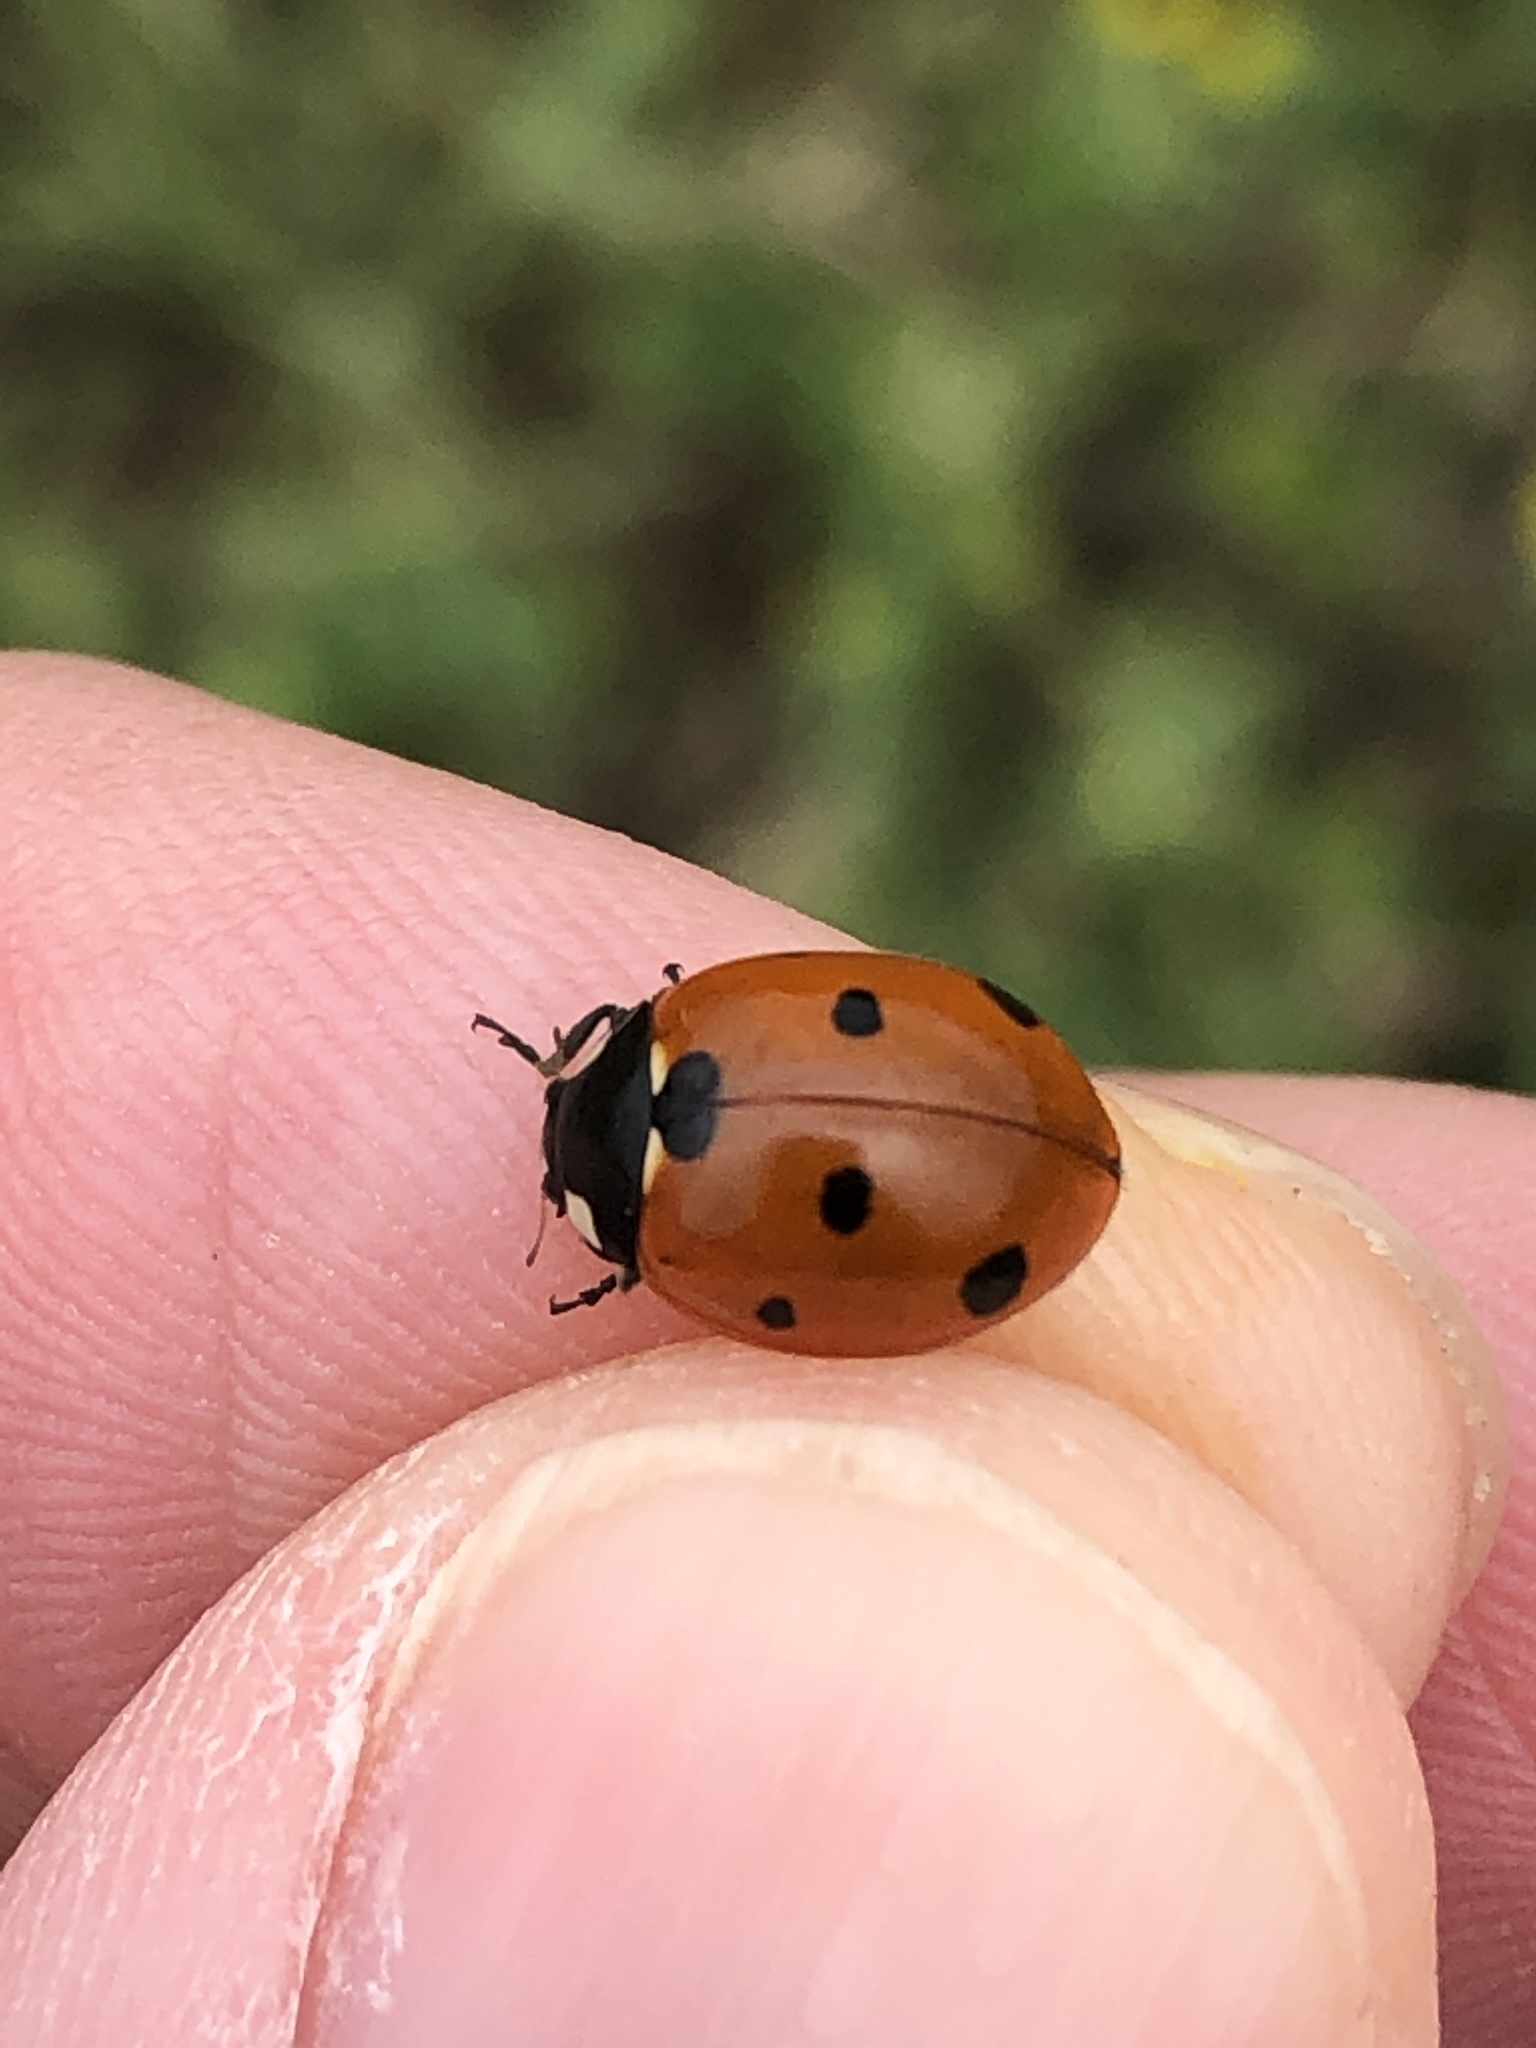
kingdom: Animalia
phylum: Arthropoda
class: Insecta
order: Coleoptera
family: Coccinellidae
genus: Coccinella
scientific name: Coccinella septempunctata
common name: Sevenspotted lady beetle
